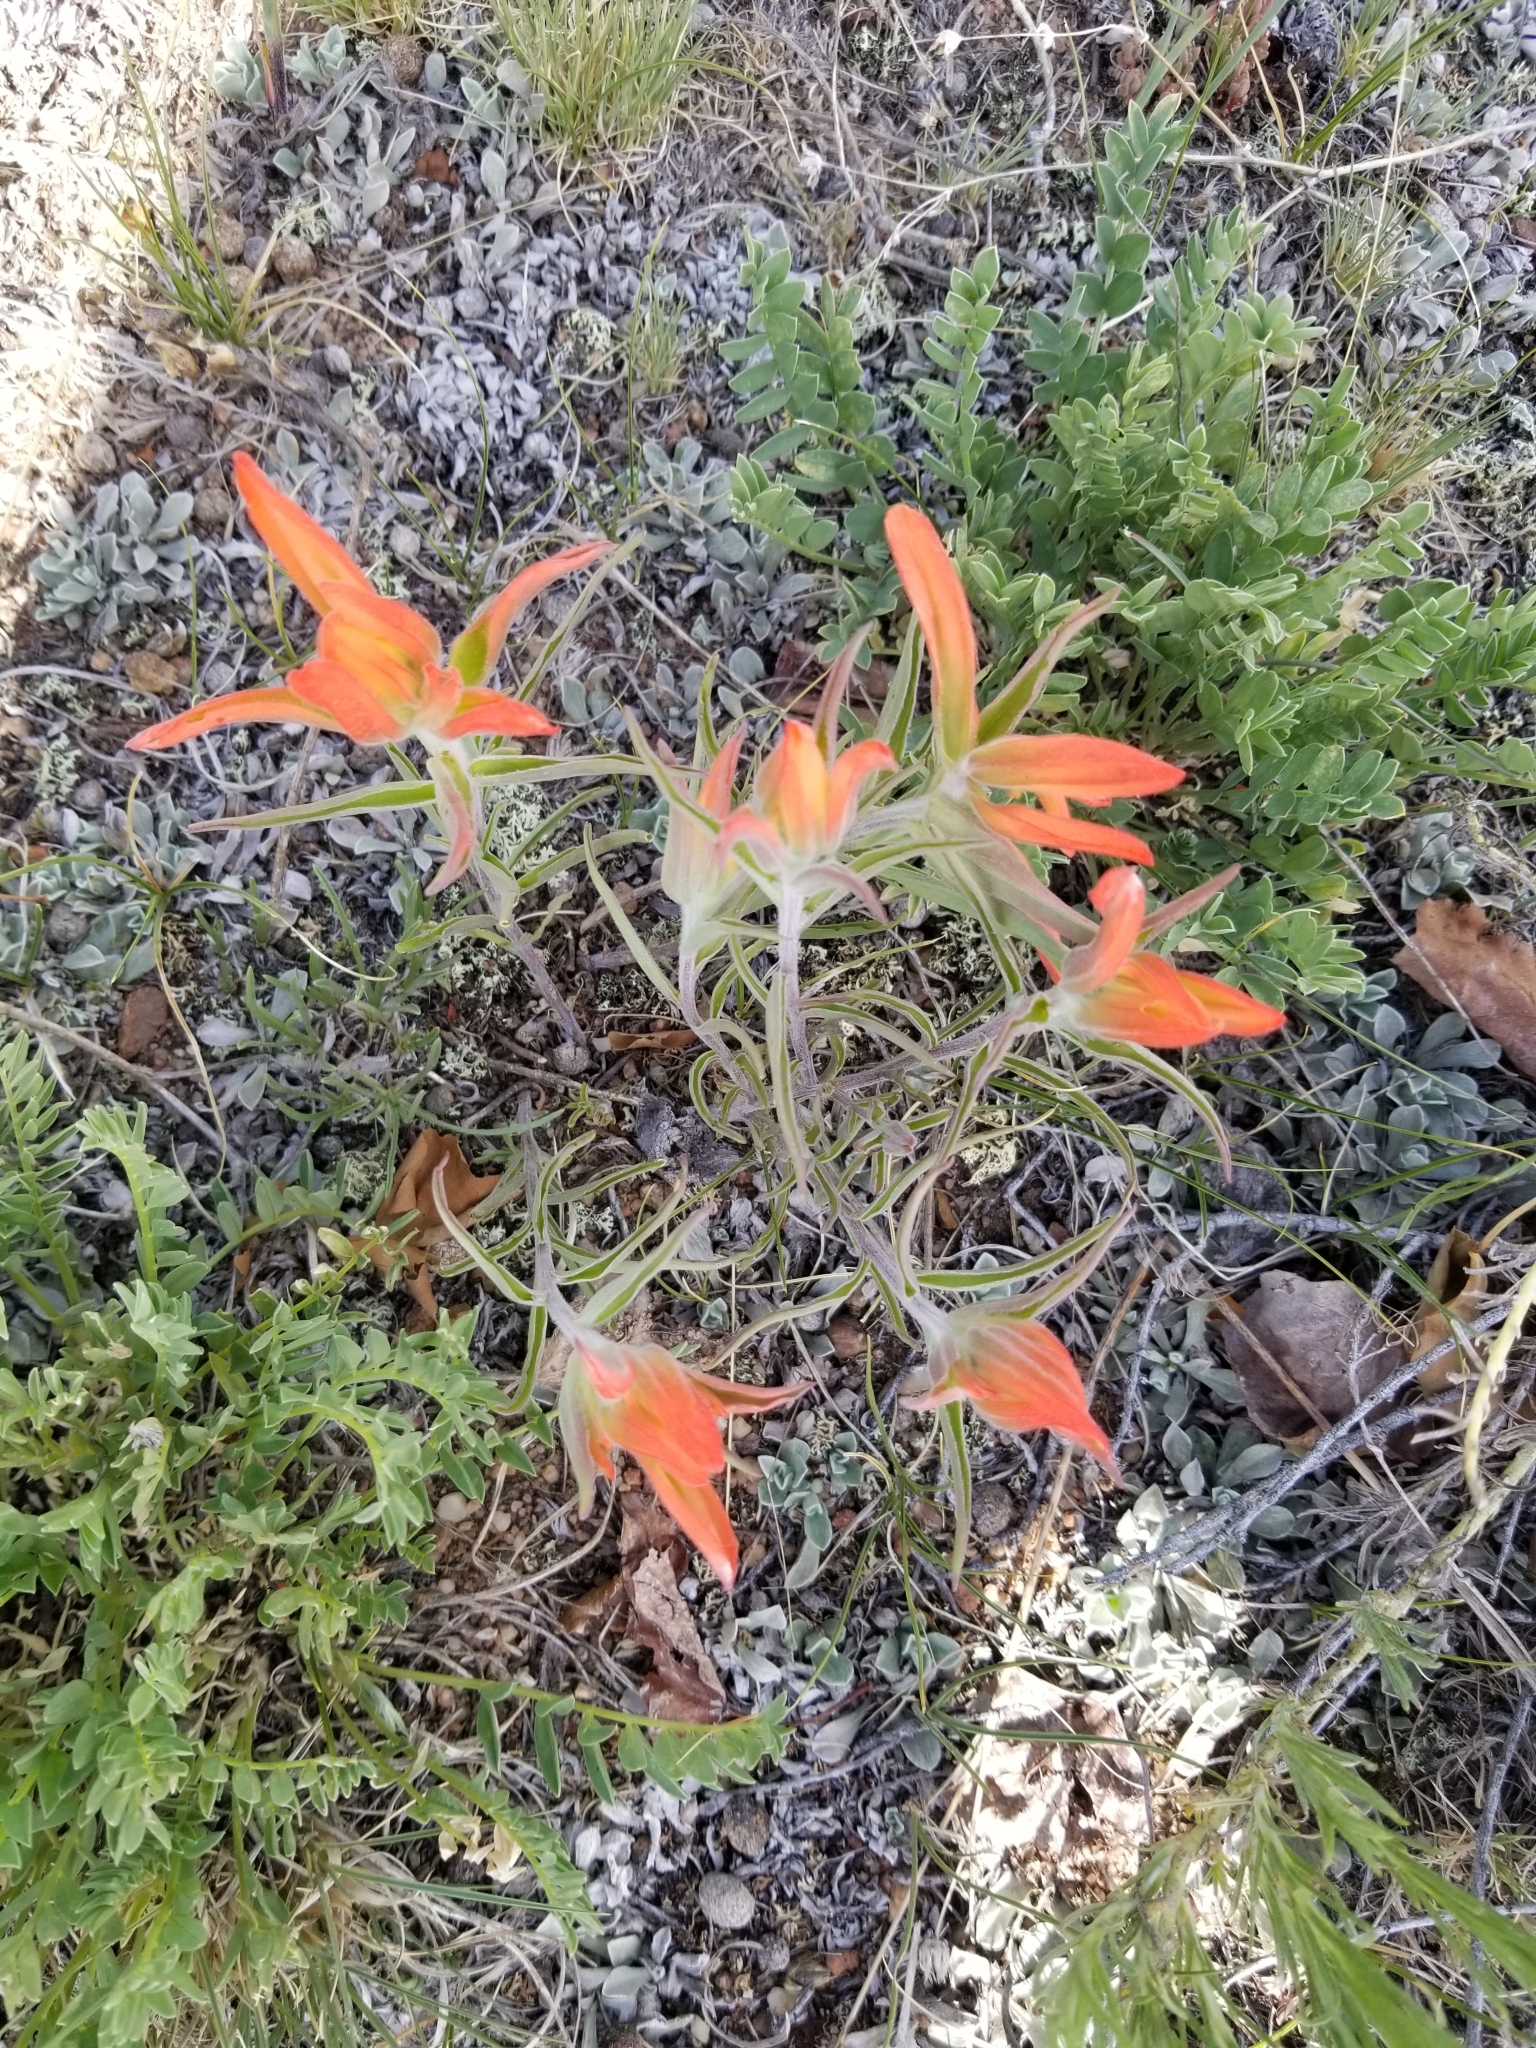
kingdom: Plantae
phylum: Tracheophyta
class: Magnoliopsida
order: Lamiales
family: Orobanchaceae
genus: Castilleja
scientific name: Castilleja integra
